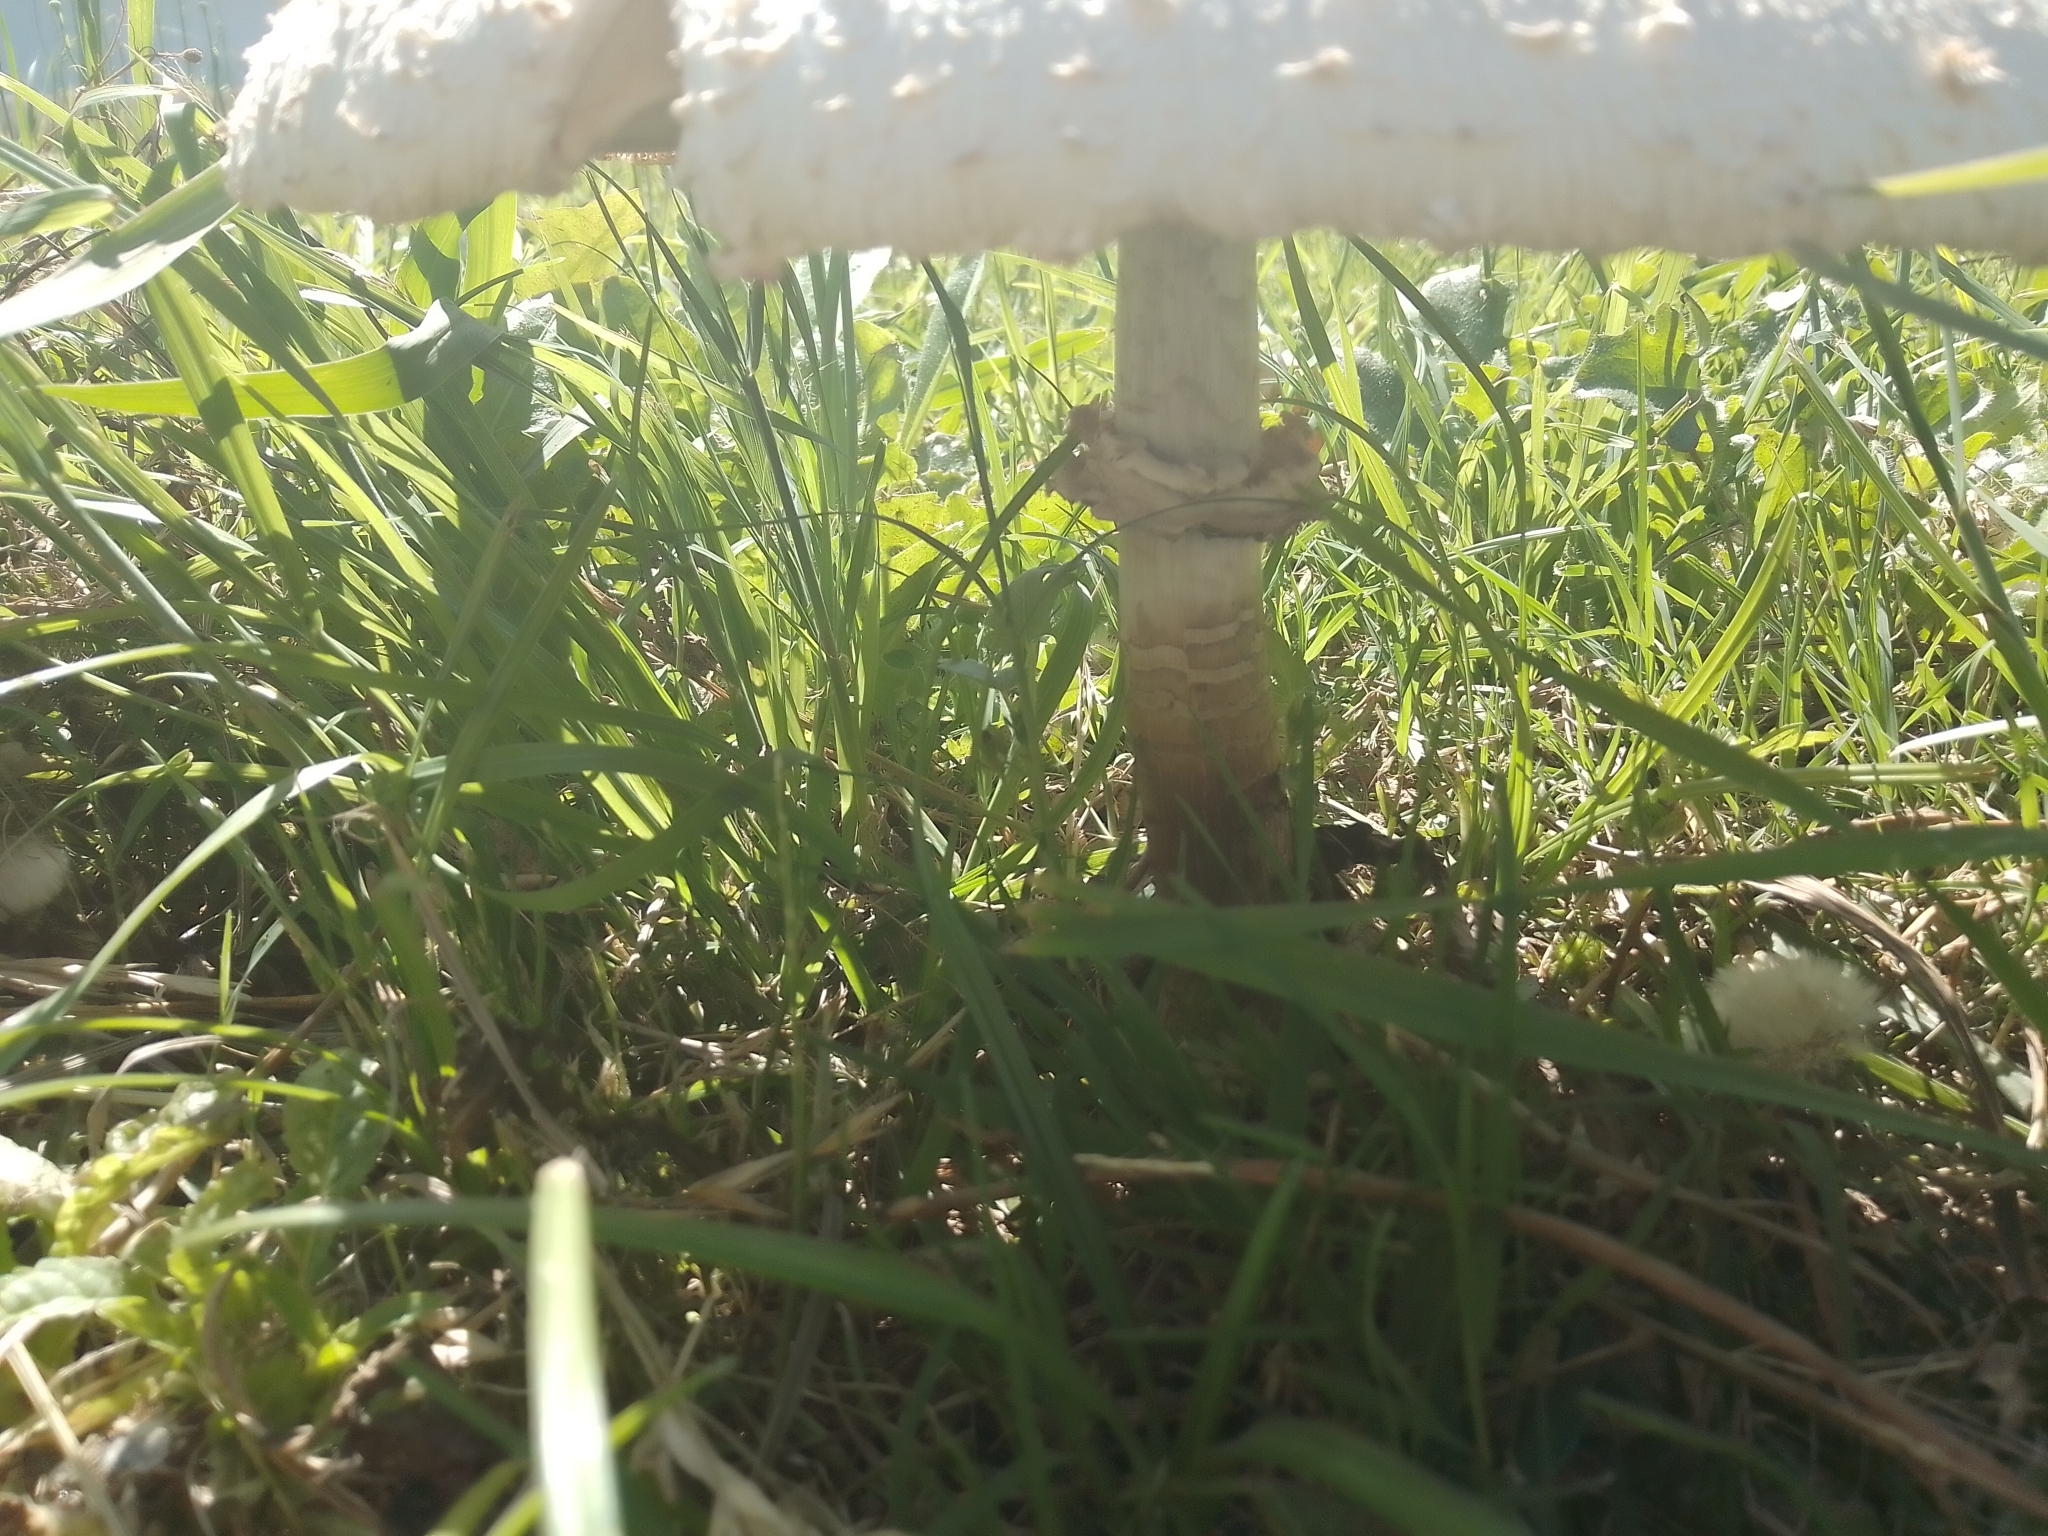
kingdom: Fungi
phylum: Basidiomycota
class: Agaricomycetes
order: Agaricales
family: Agaricaceae
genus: Chlorophyllum
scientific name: Chlorophyllum molybdites
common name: False parasol
